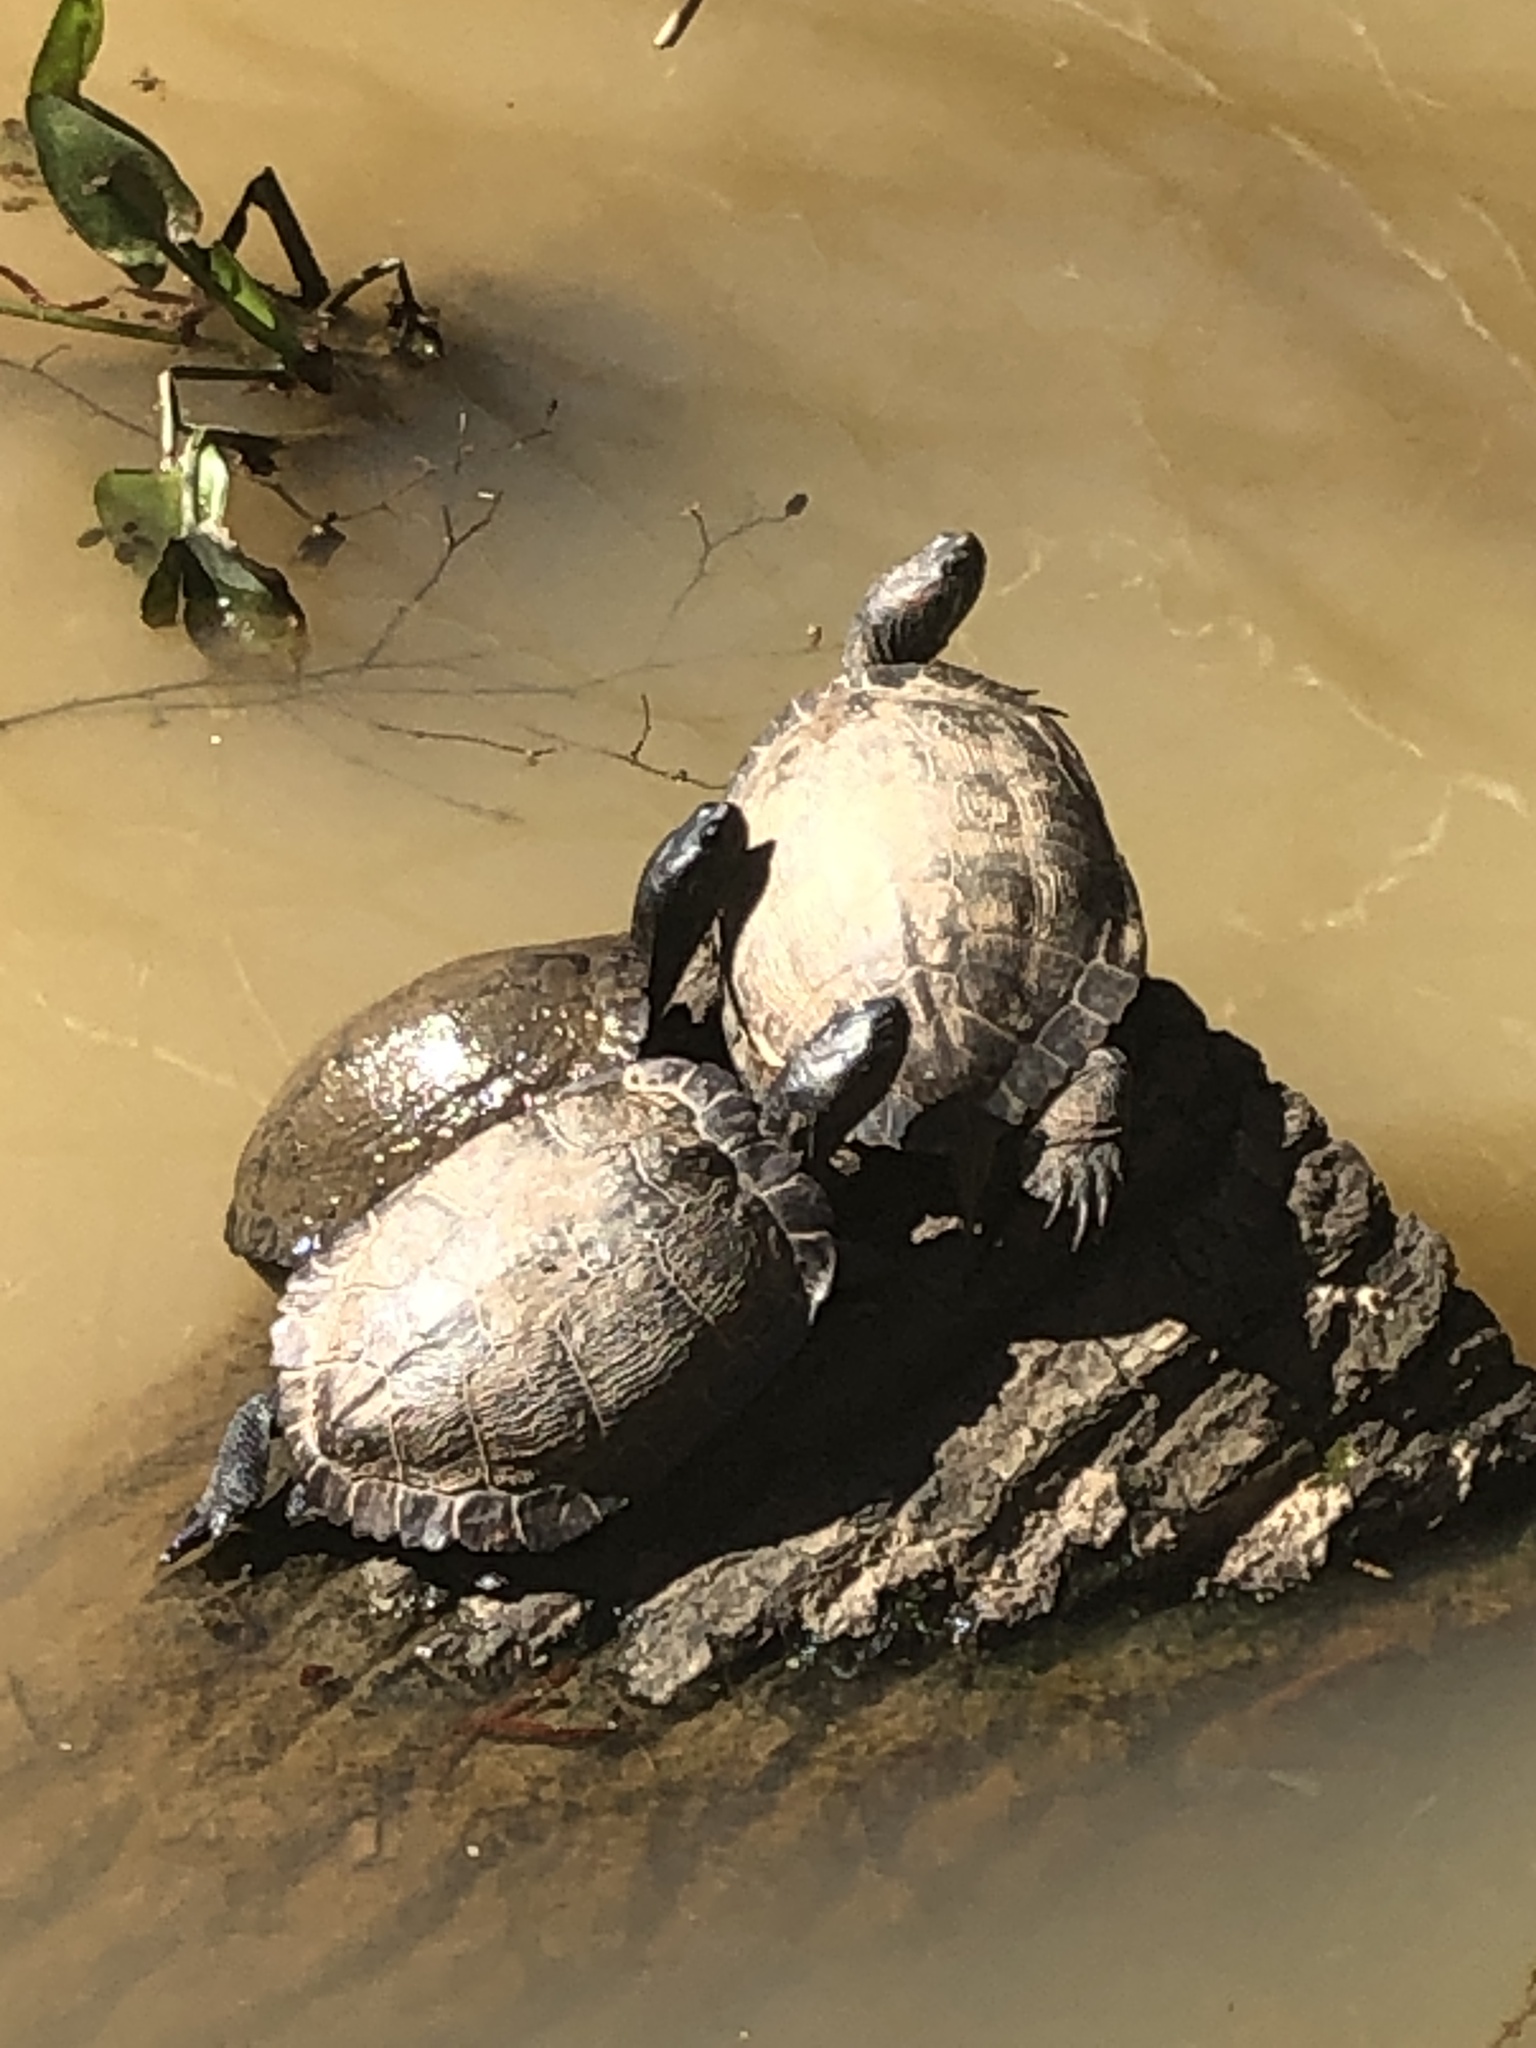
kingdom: Animalia
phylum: Chordata
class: Testudines
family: Emydidae
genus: Trachemys
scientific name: Trachemys scripta
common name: Slider
